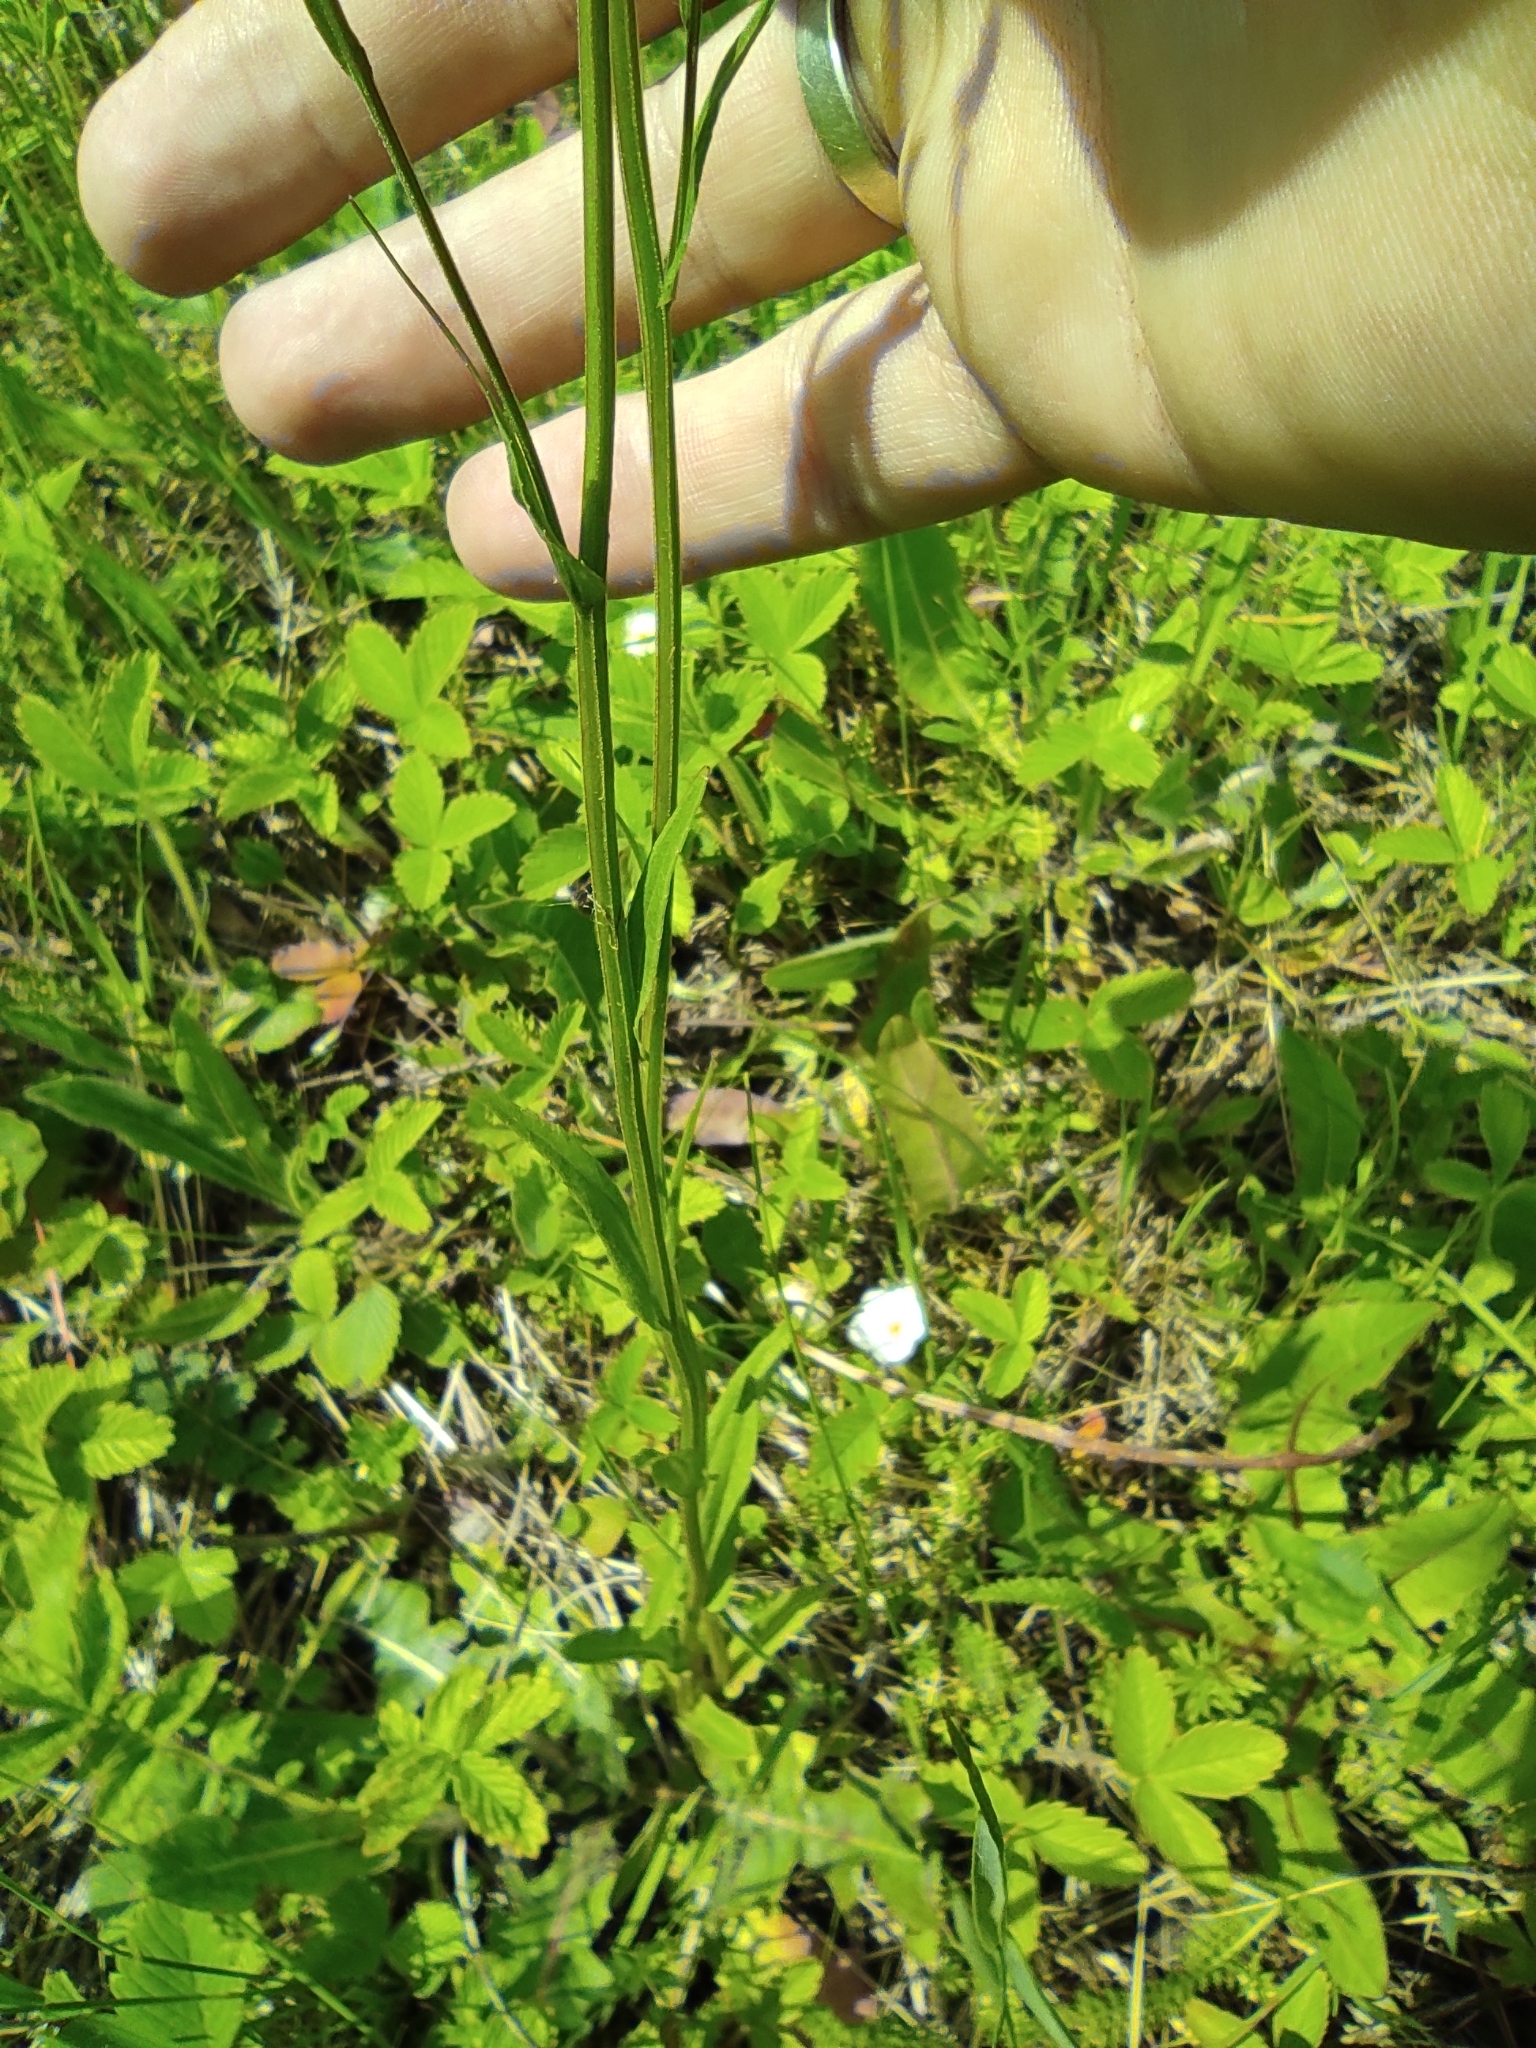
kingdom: Plantae
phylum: Tracheophyta
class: Magnoliopsida
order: Asterales
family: Campanulaceae
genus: Campanula
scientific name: Campanula patula
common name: Spreading bellflower
